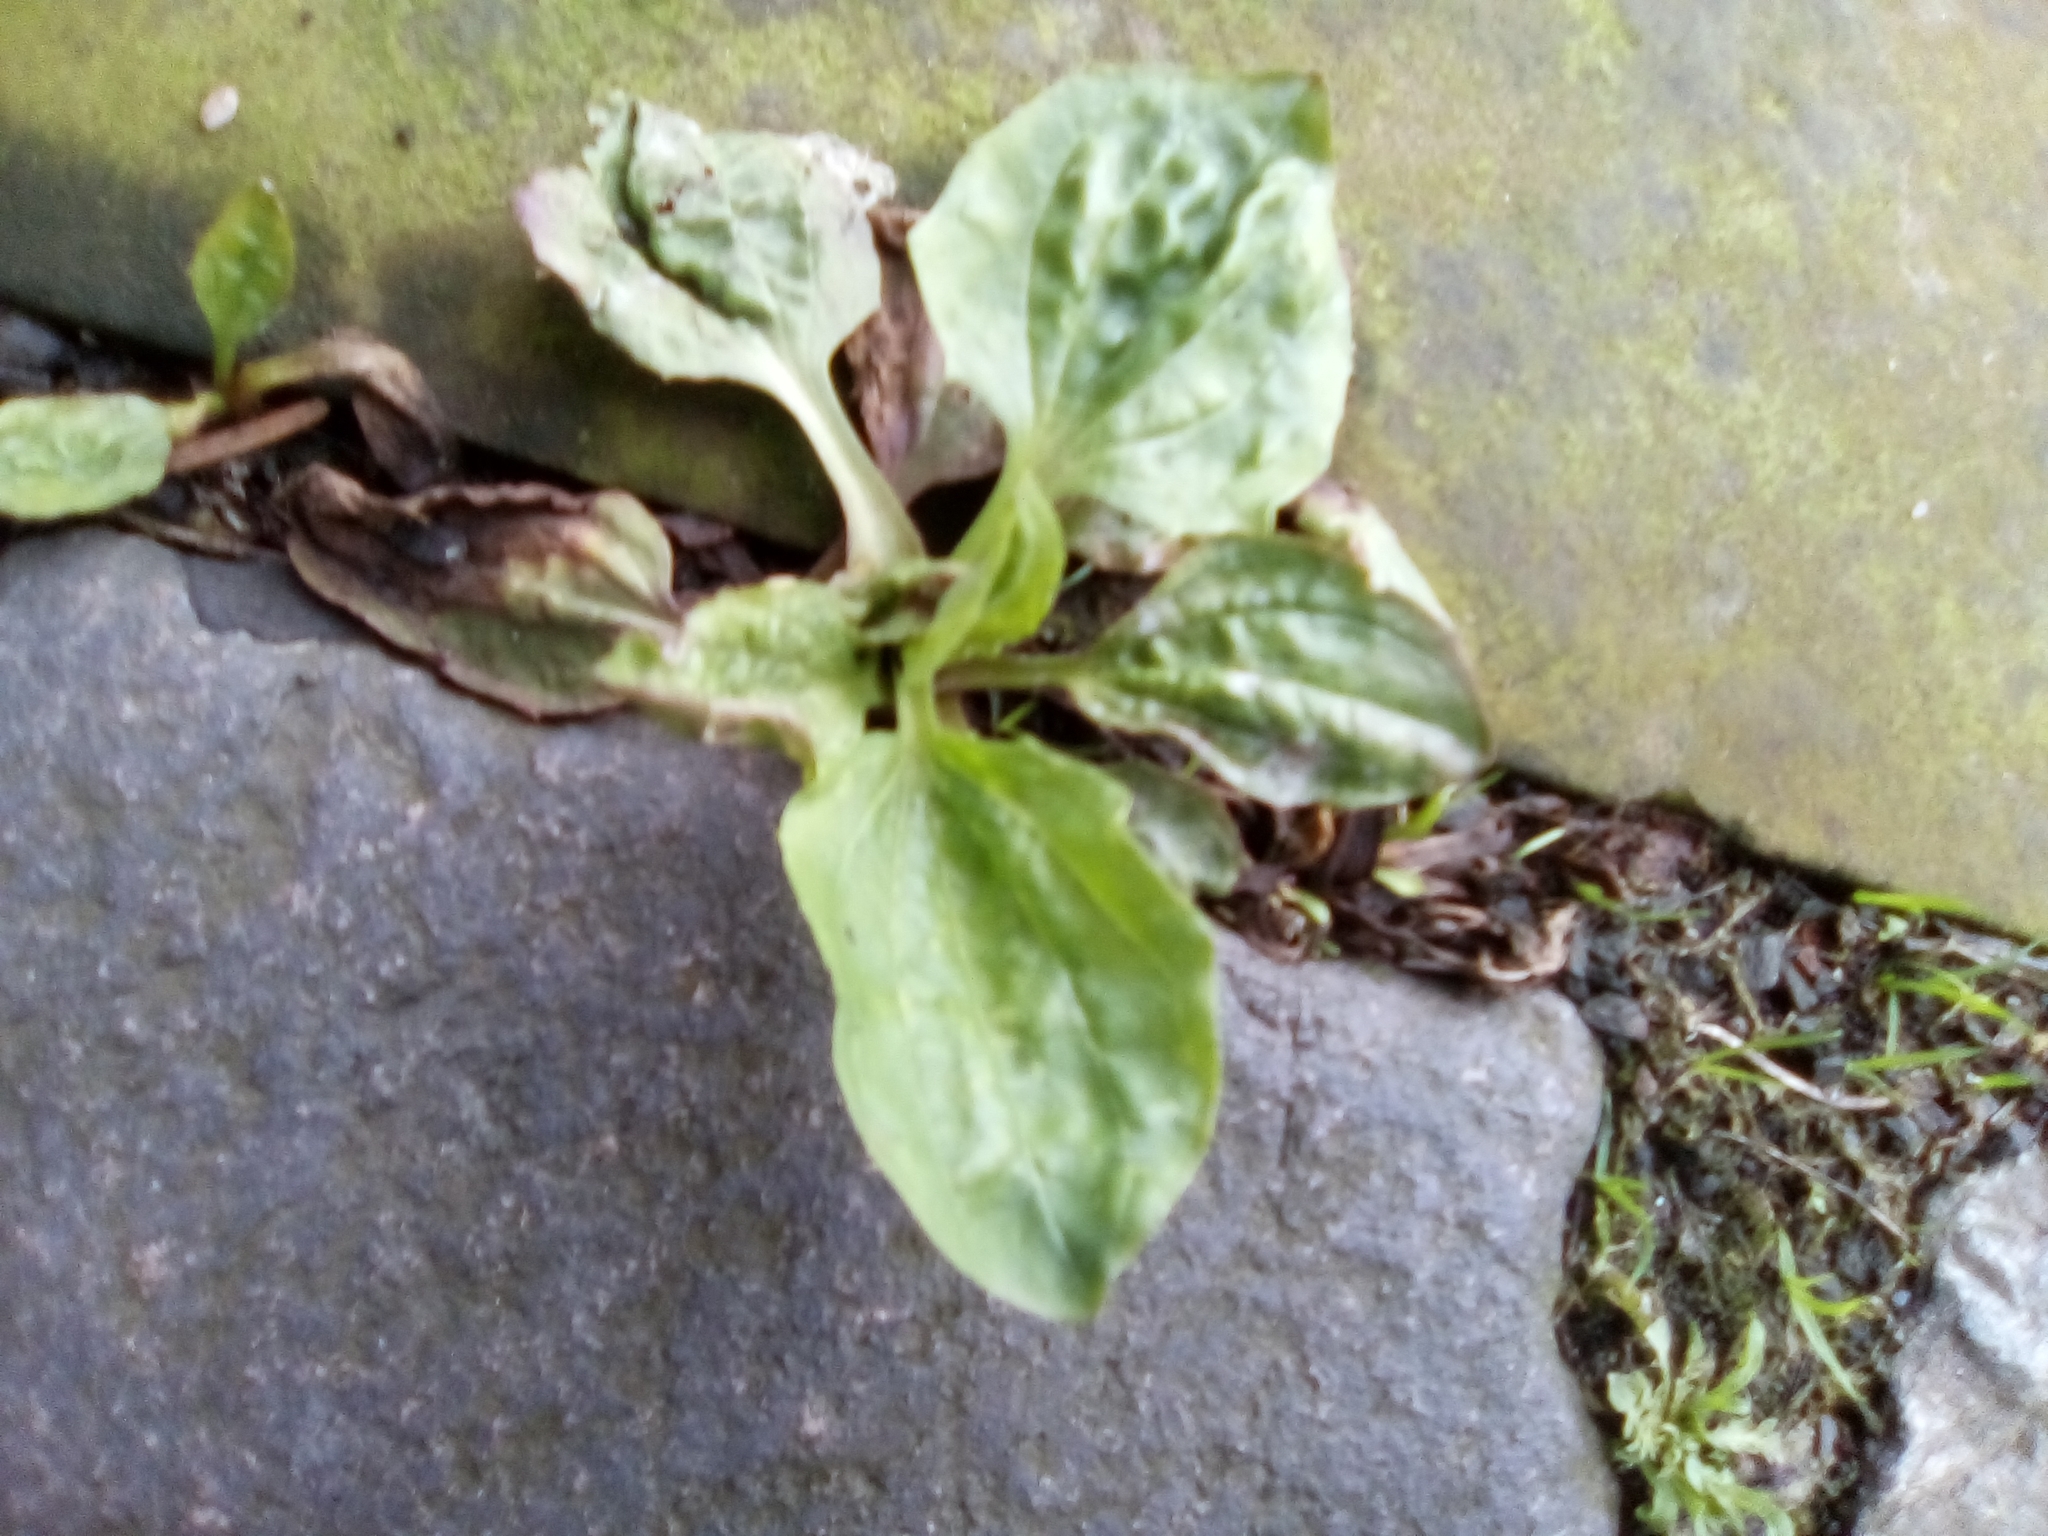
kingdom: Plantae
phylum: Tracheophyta
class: Magnoliopsida
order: Lamiales
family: Plantaginaceae
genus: Plantago
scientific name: Plantago major
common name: Common plantain
